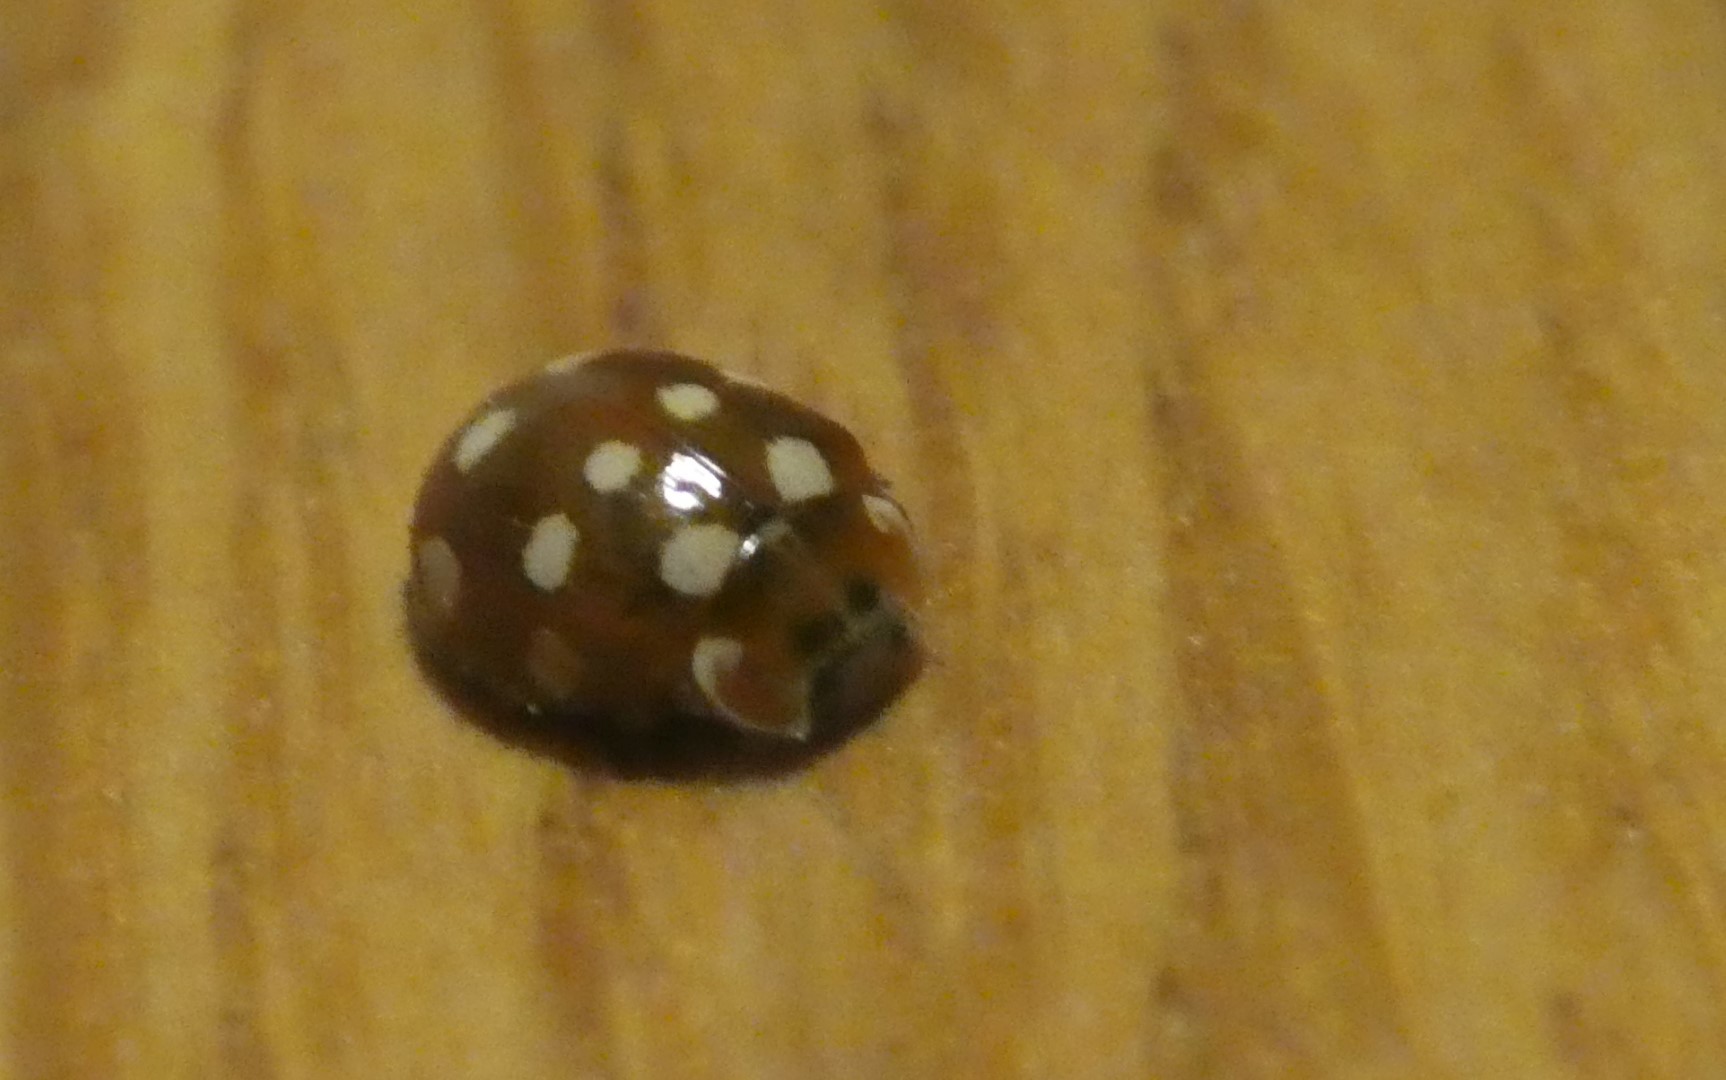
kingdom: Animalia
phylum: Arthropoda
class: Insecta
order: Coleoptera
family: Coccinellidae
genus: Calvia
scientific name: Calvia quatuordecimguttata
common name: Cream-spot ladybird
